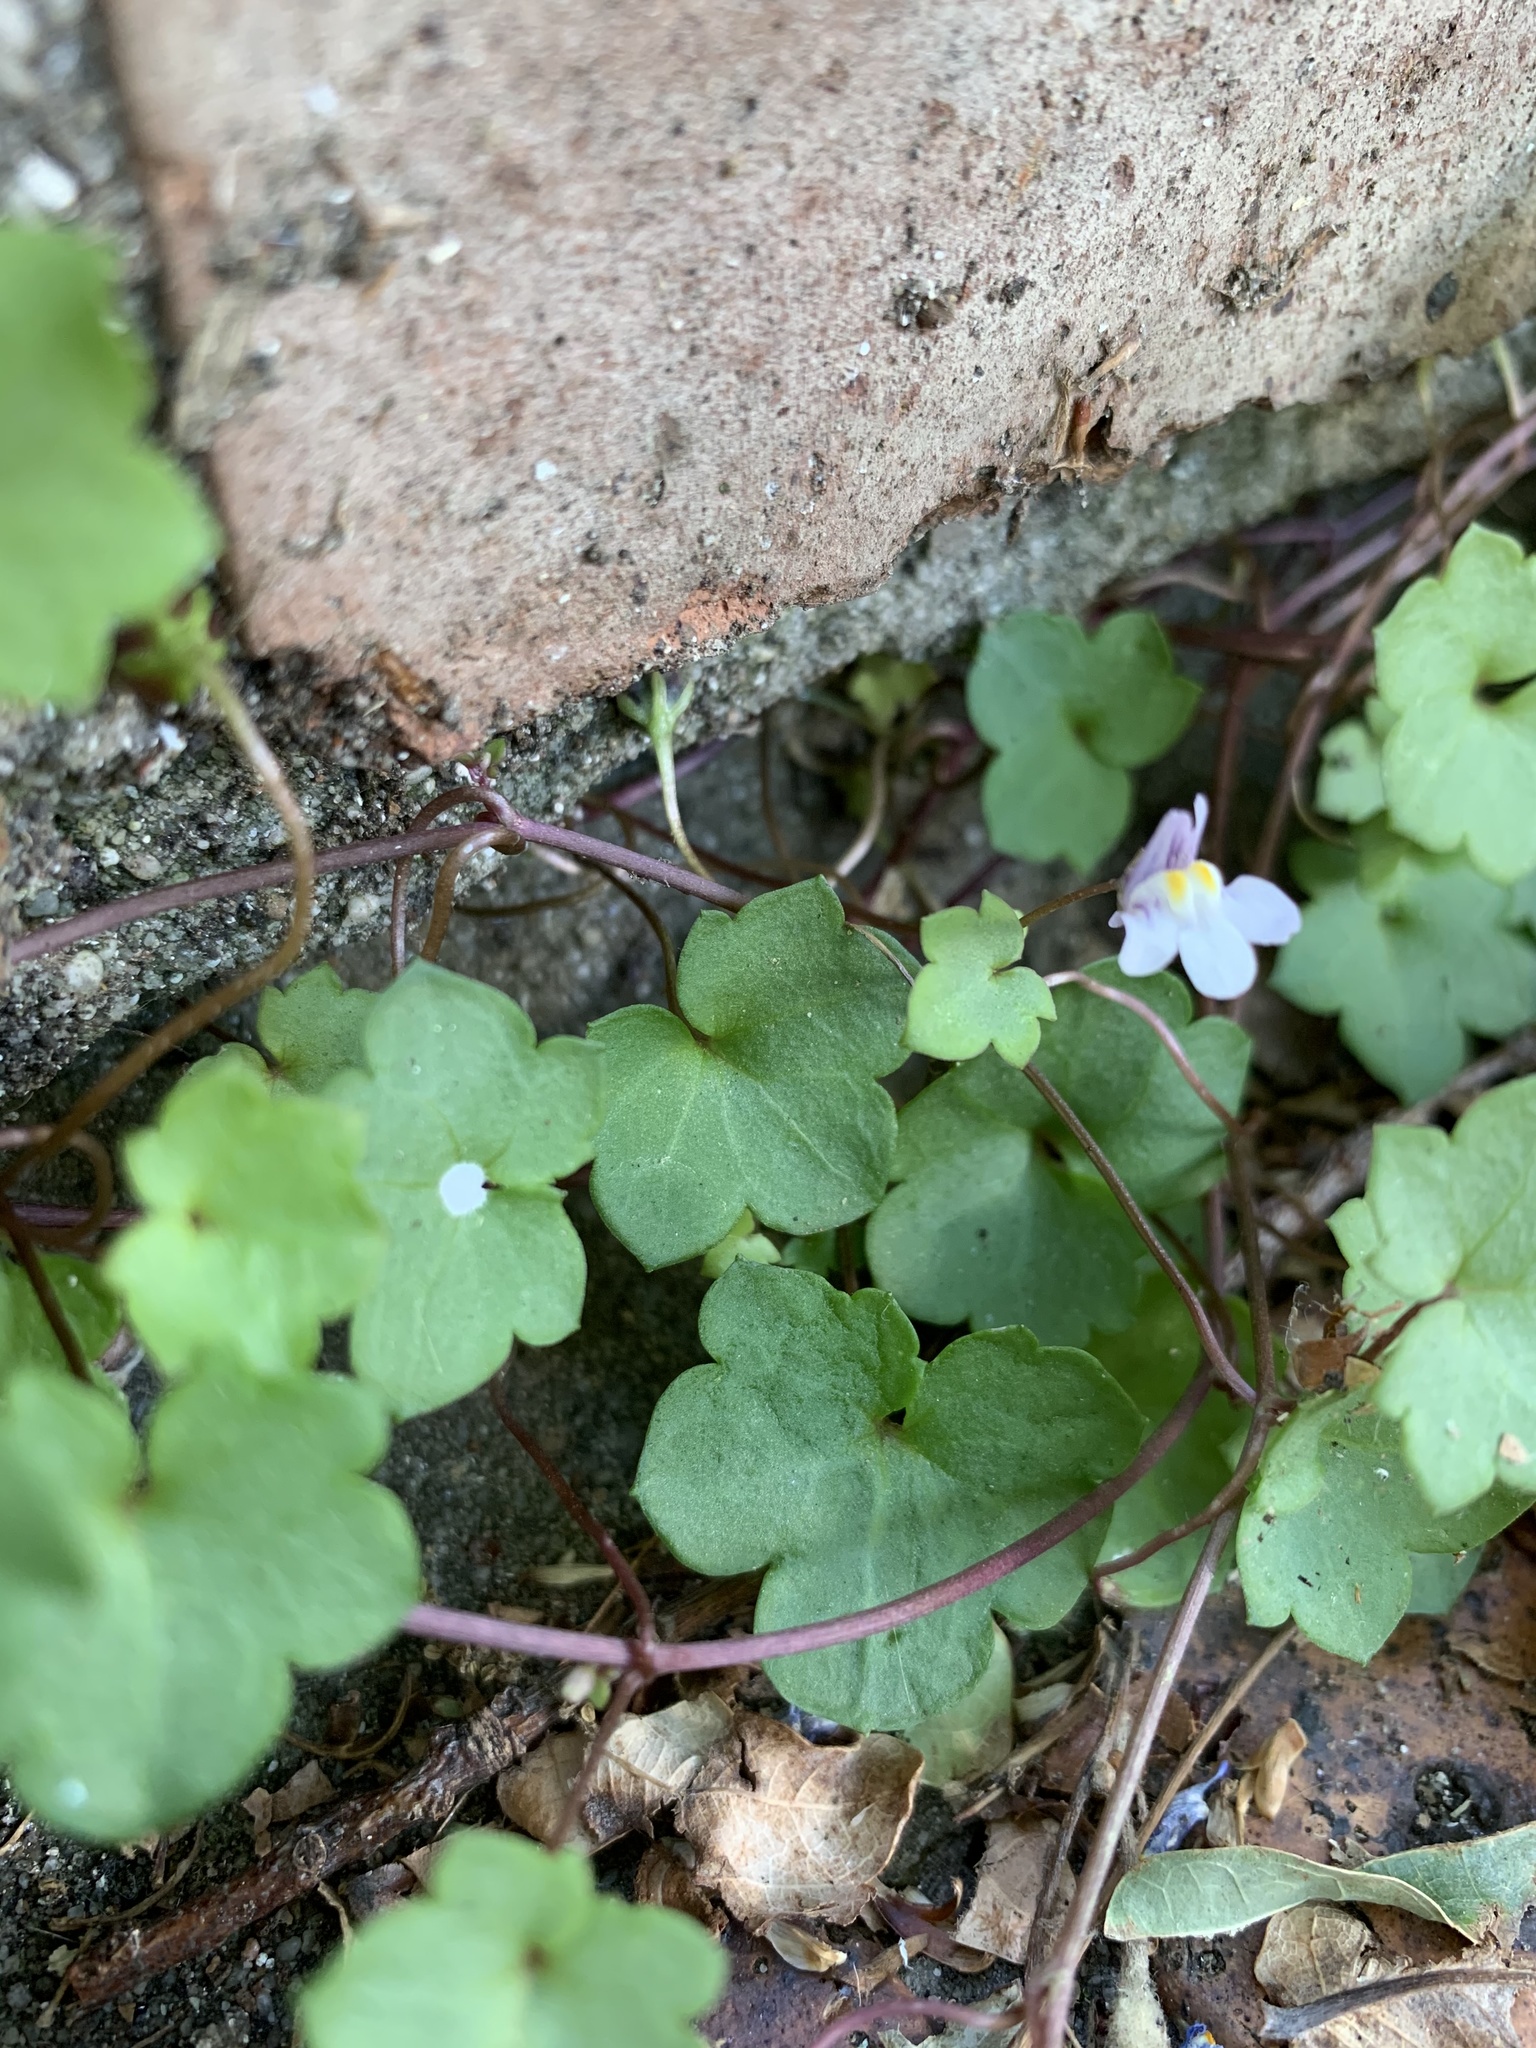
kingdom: Plantae
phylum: Tracheophyta
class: Magnoliopsida
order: Lamiales
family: Plantaginaceae
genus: Cymbalaria
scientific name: Cymbalaria muralis
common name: Ivy-leaved toadflax
